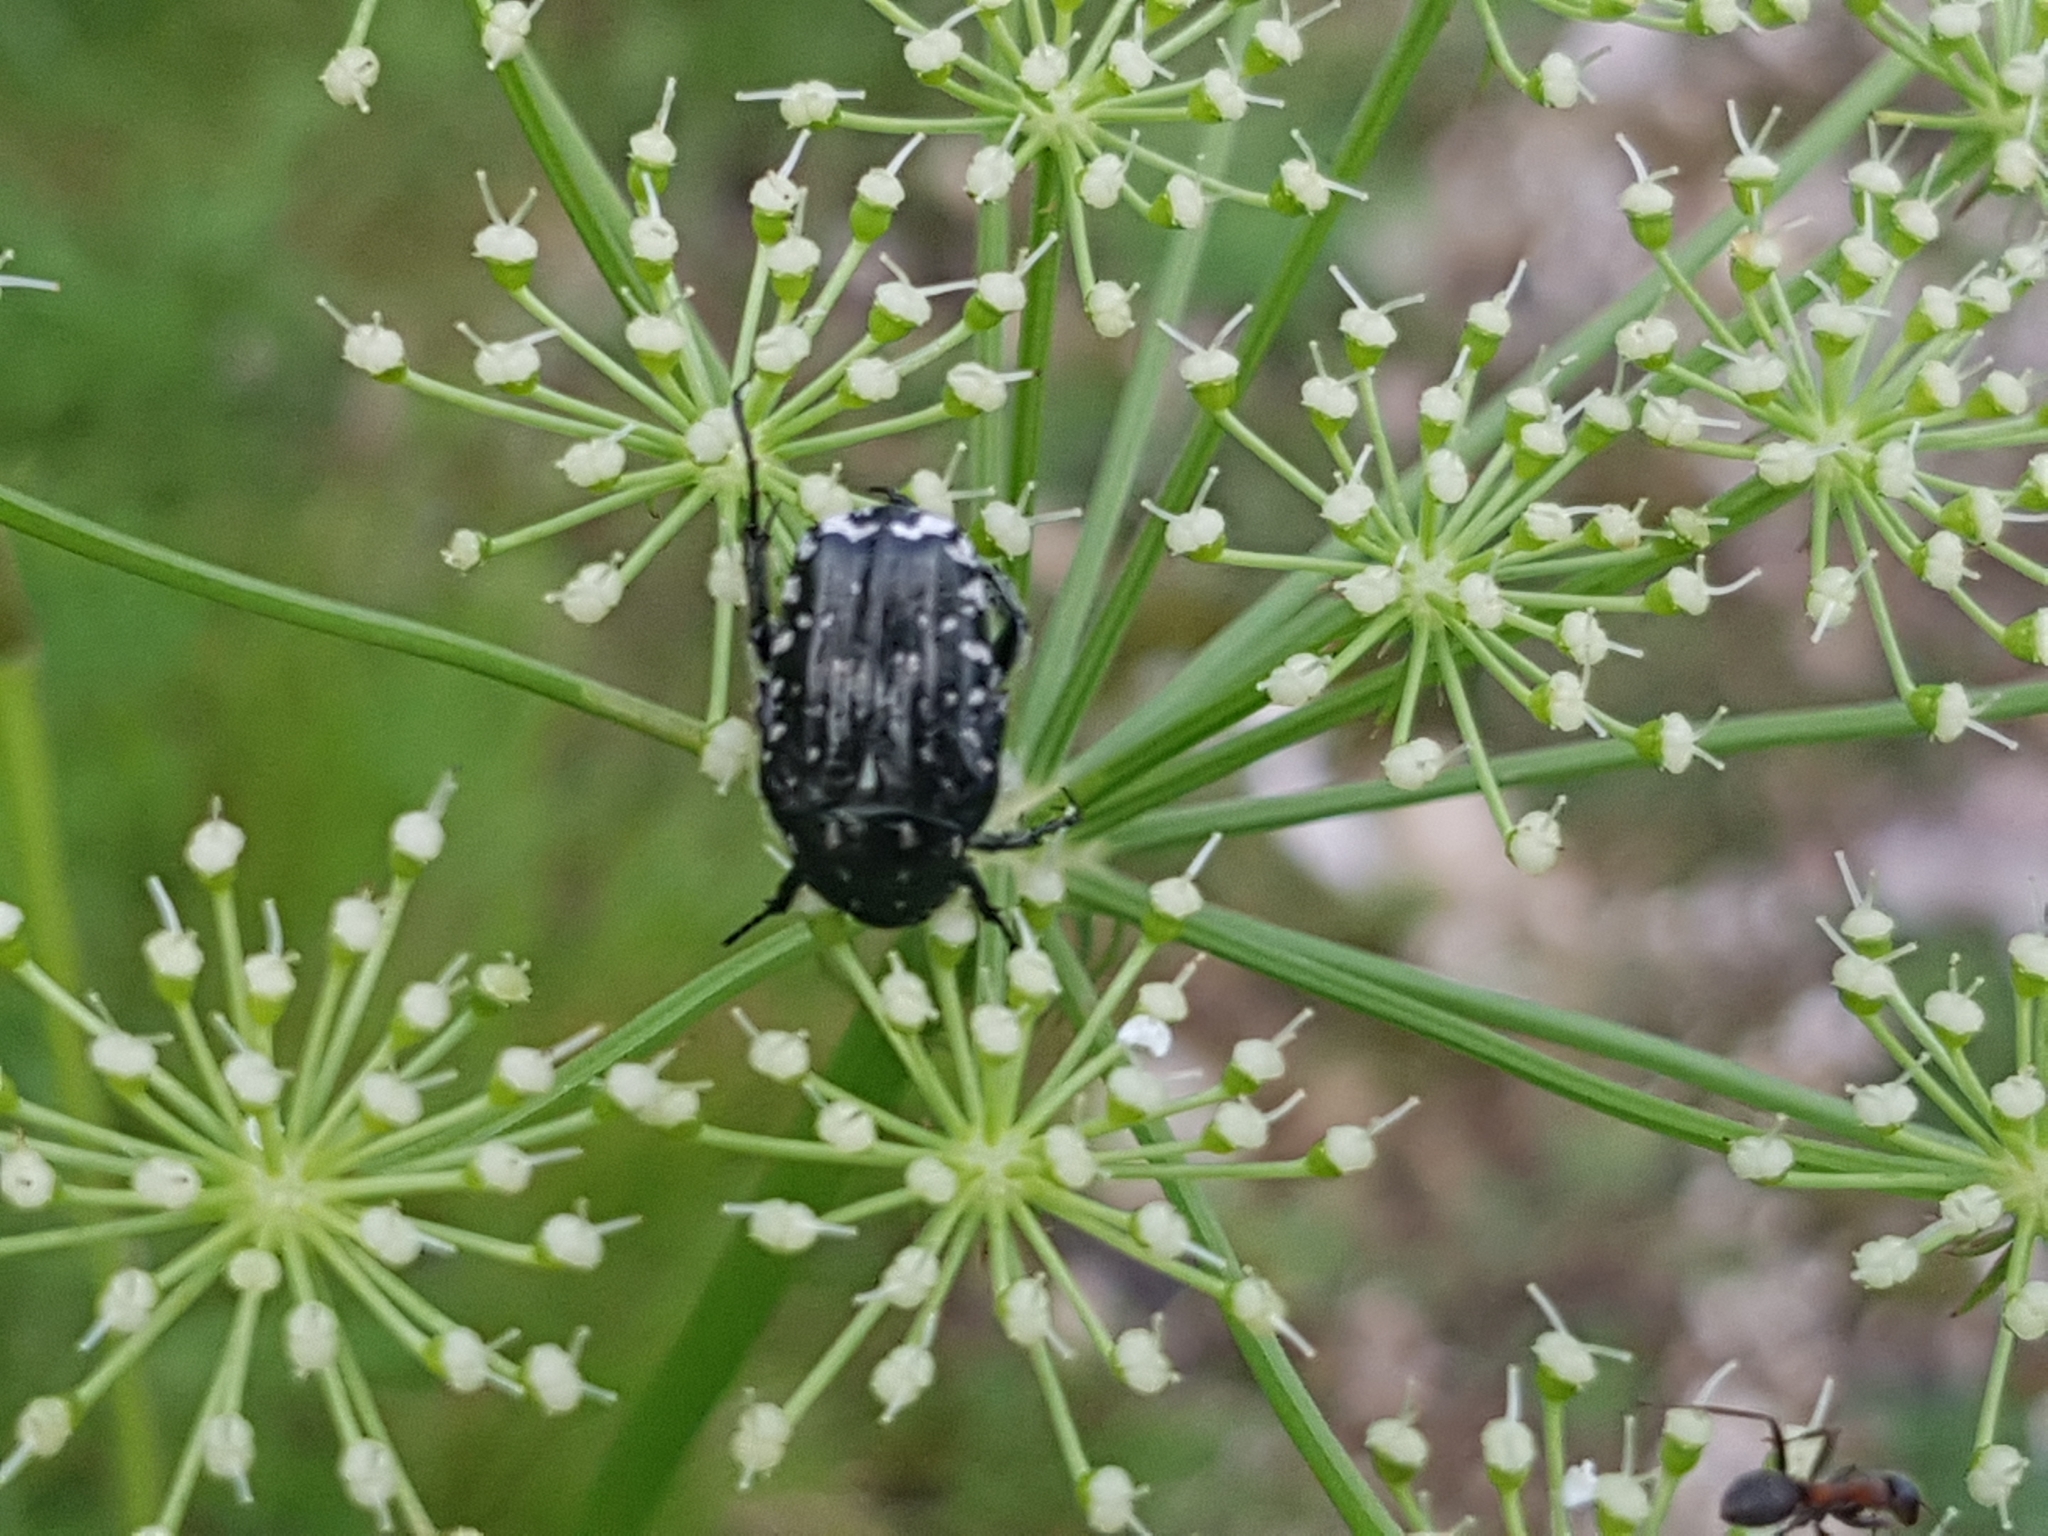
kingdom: Animalia
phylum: Arthropoda
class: Insecta
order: Coleoptera
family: Scarabaeidae
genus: Oxythyrea
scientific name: Oxythyrea funesta
